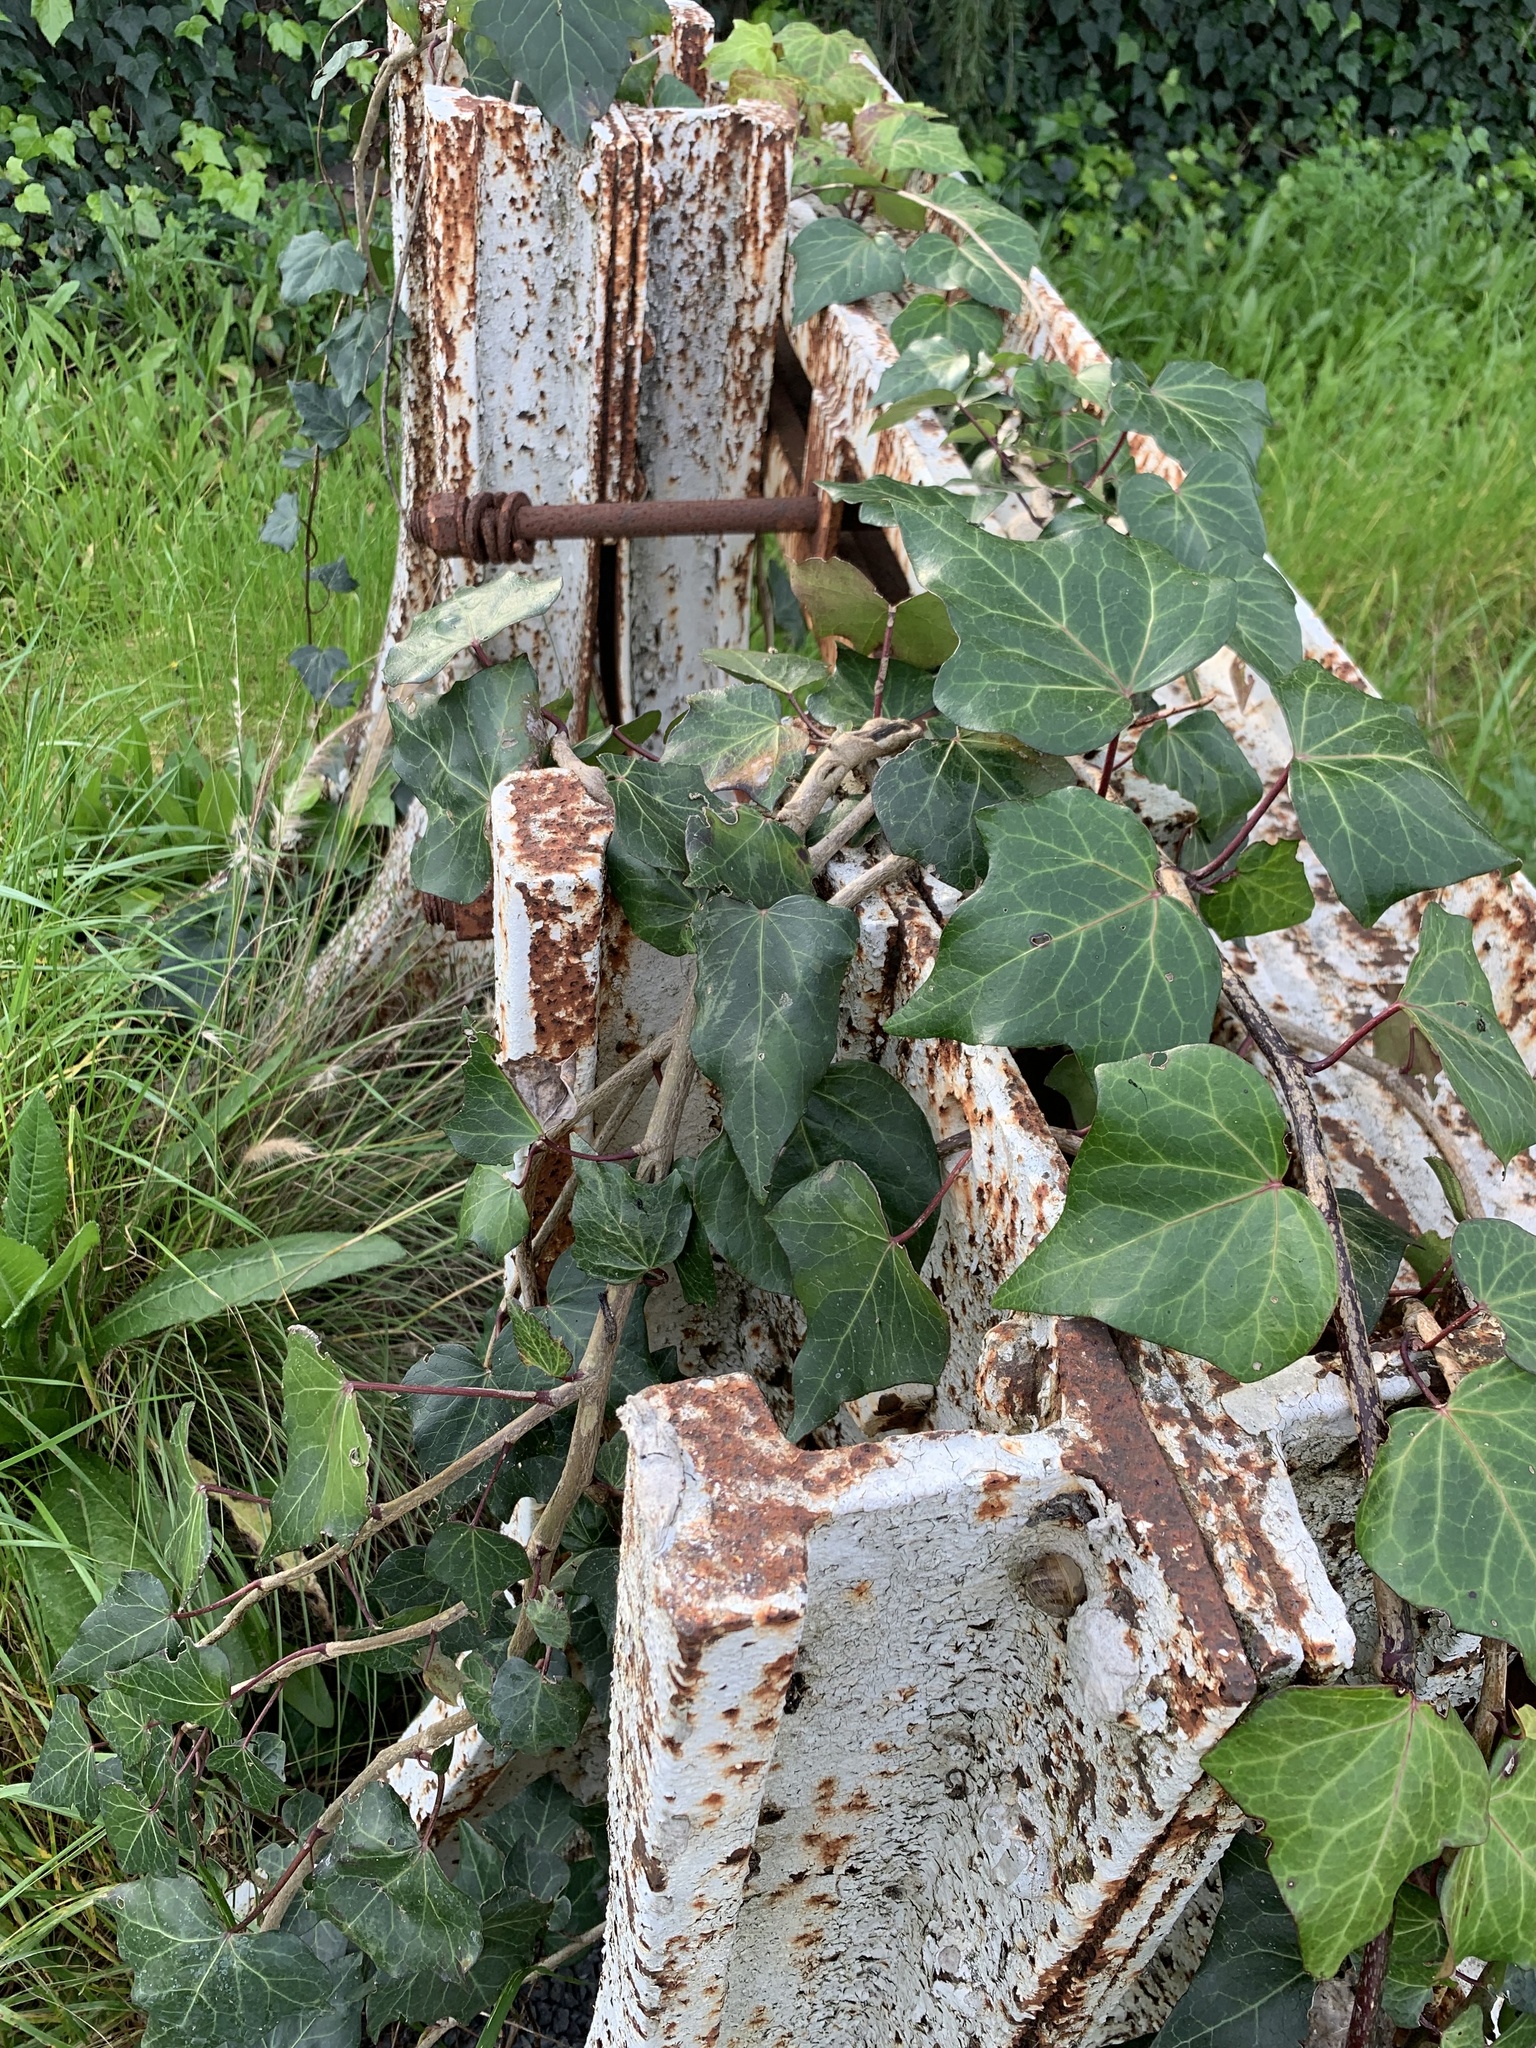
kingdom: Plantae
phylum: Tracheophyta
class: Magnoliopsida
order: Apiales
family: Araliaceae
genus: Hedera
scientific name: Hedera canariensis
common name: Madeira ivy
